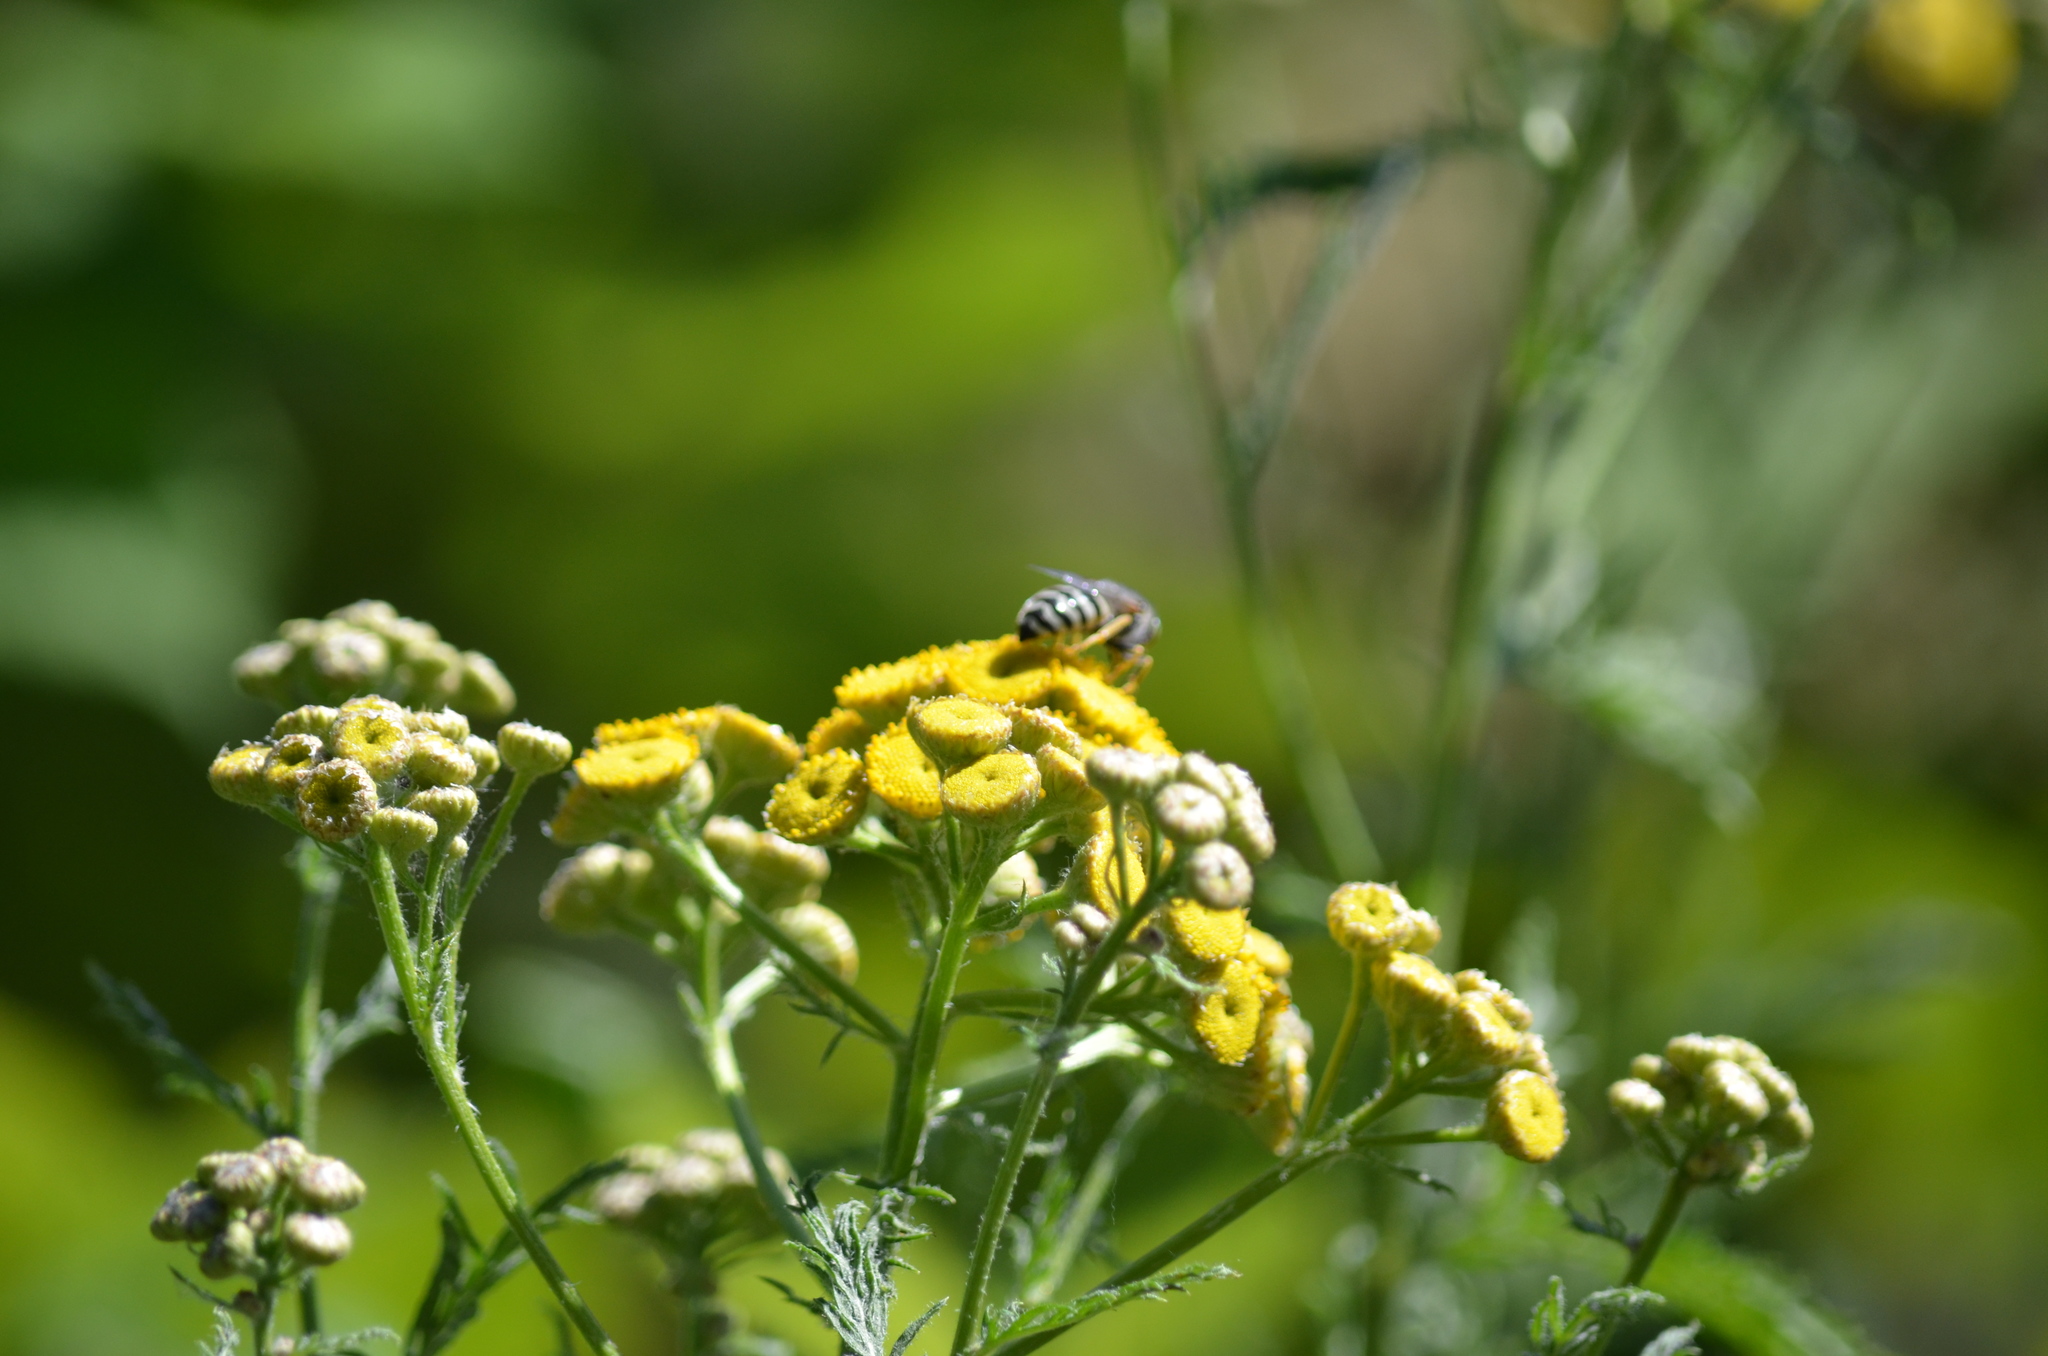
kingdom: Plantae
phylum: Tracheophyta
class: Magnoliopsida
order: Asterales
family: Asteraceae
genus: Tanacetum
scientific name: Tanacetum vulgare
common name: Common tansy
